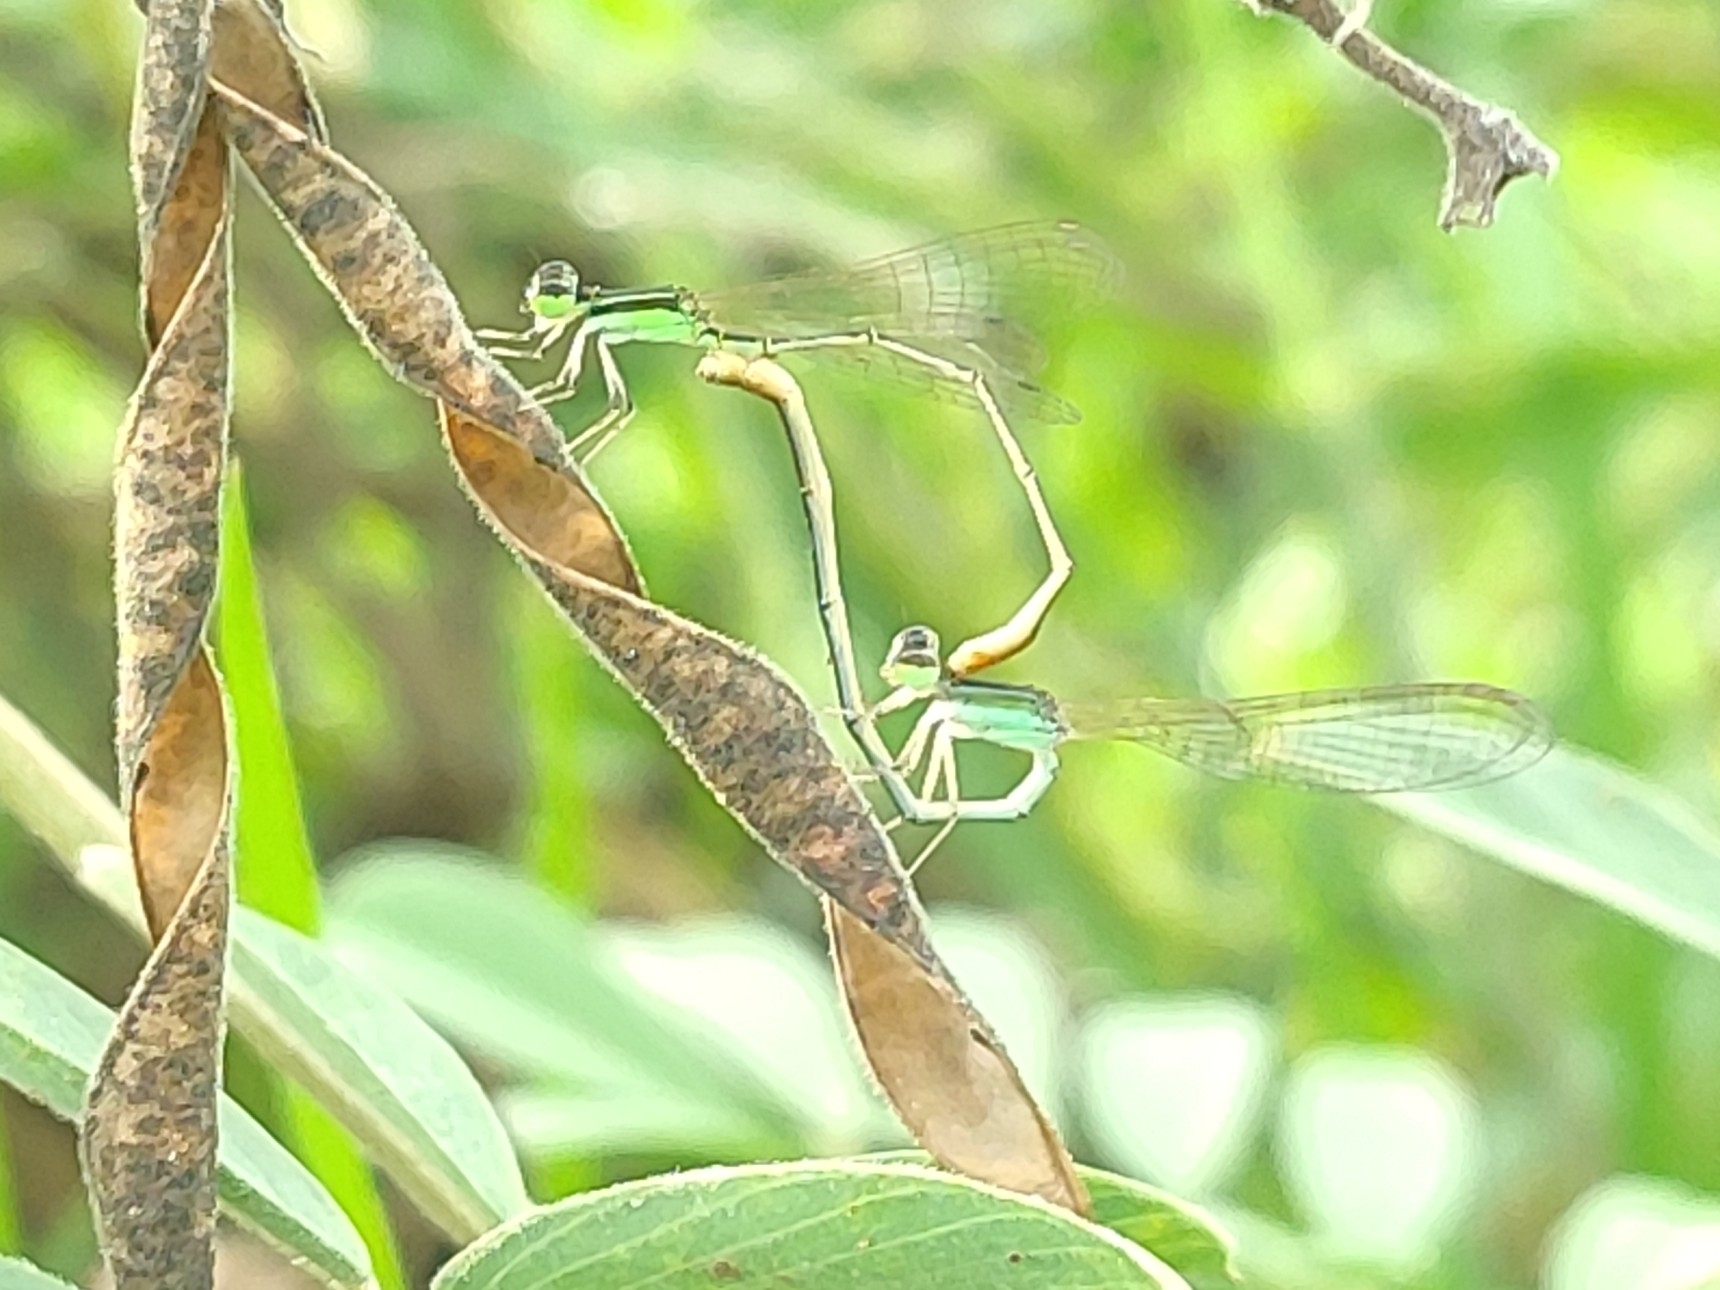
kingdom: Animalia
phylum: Arthropoda
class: Insecta
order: Odonata
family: Coenagrionidae
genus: Agriocnemis
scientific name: Agriocnemis pygmaea
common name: Pygmy wisp
